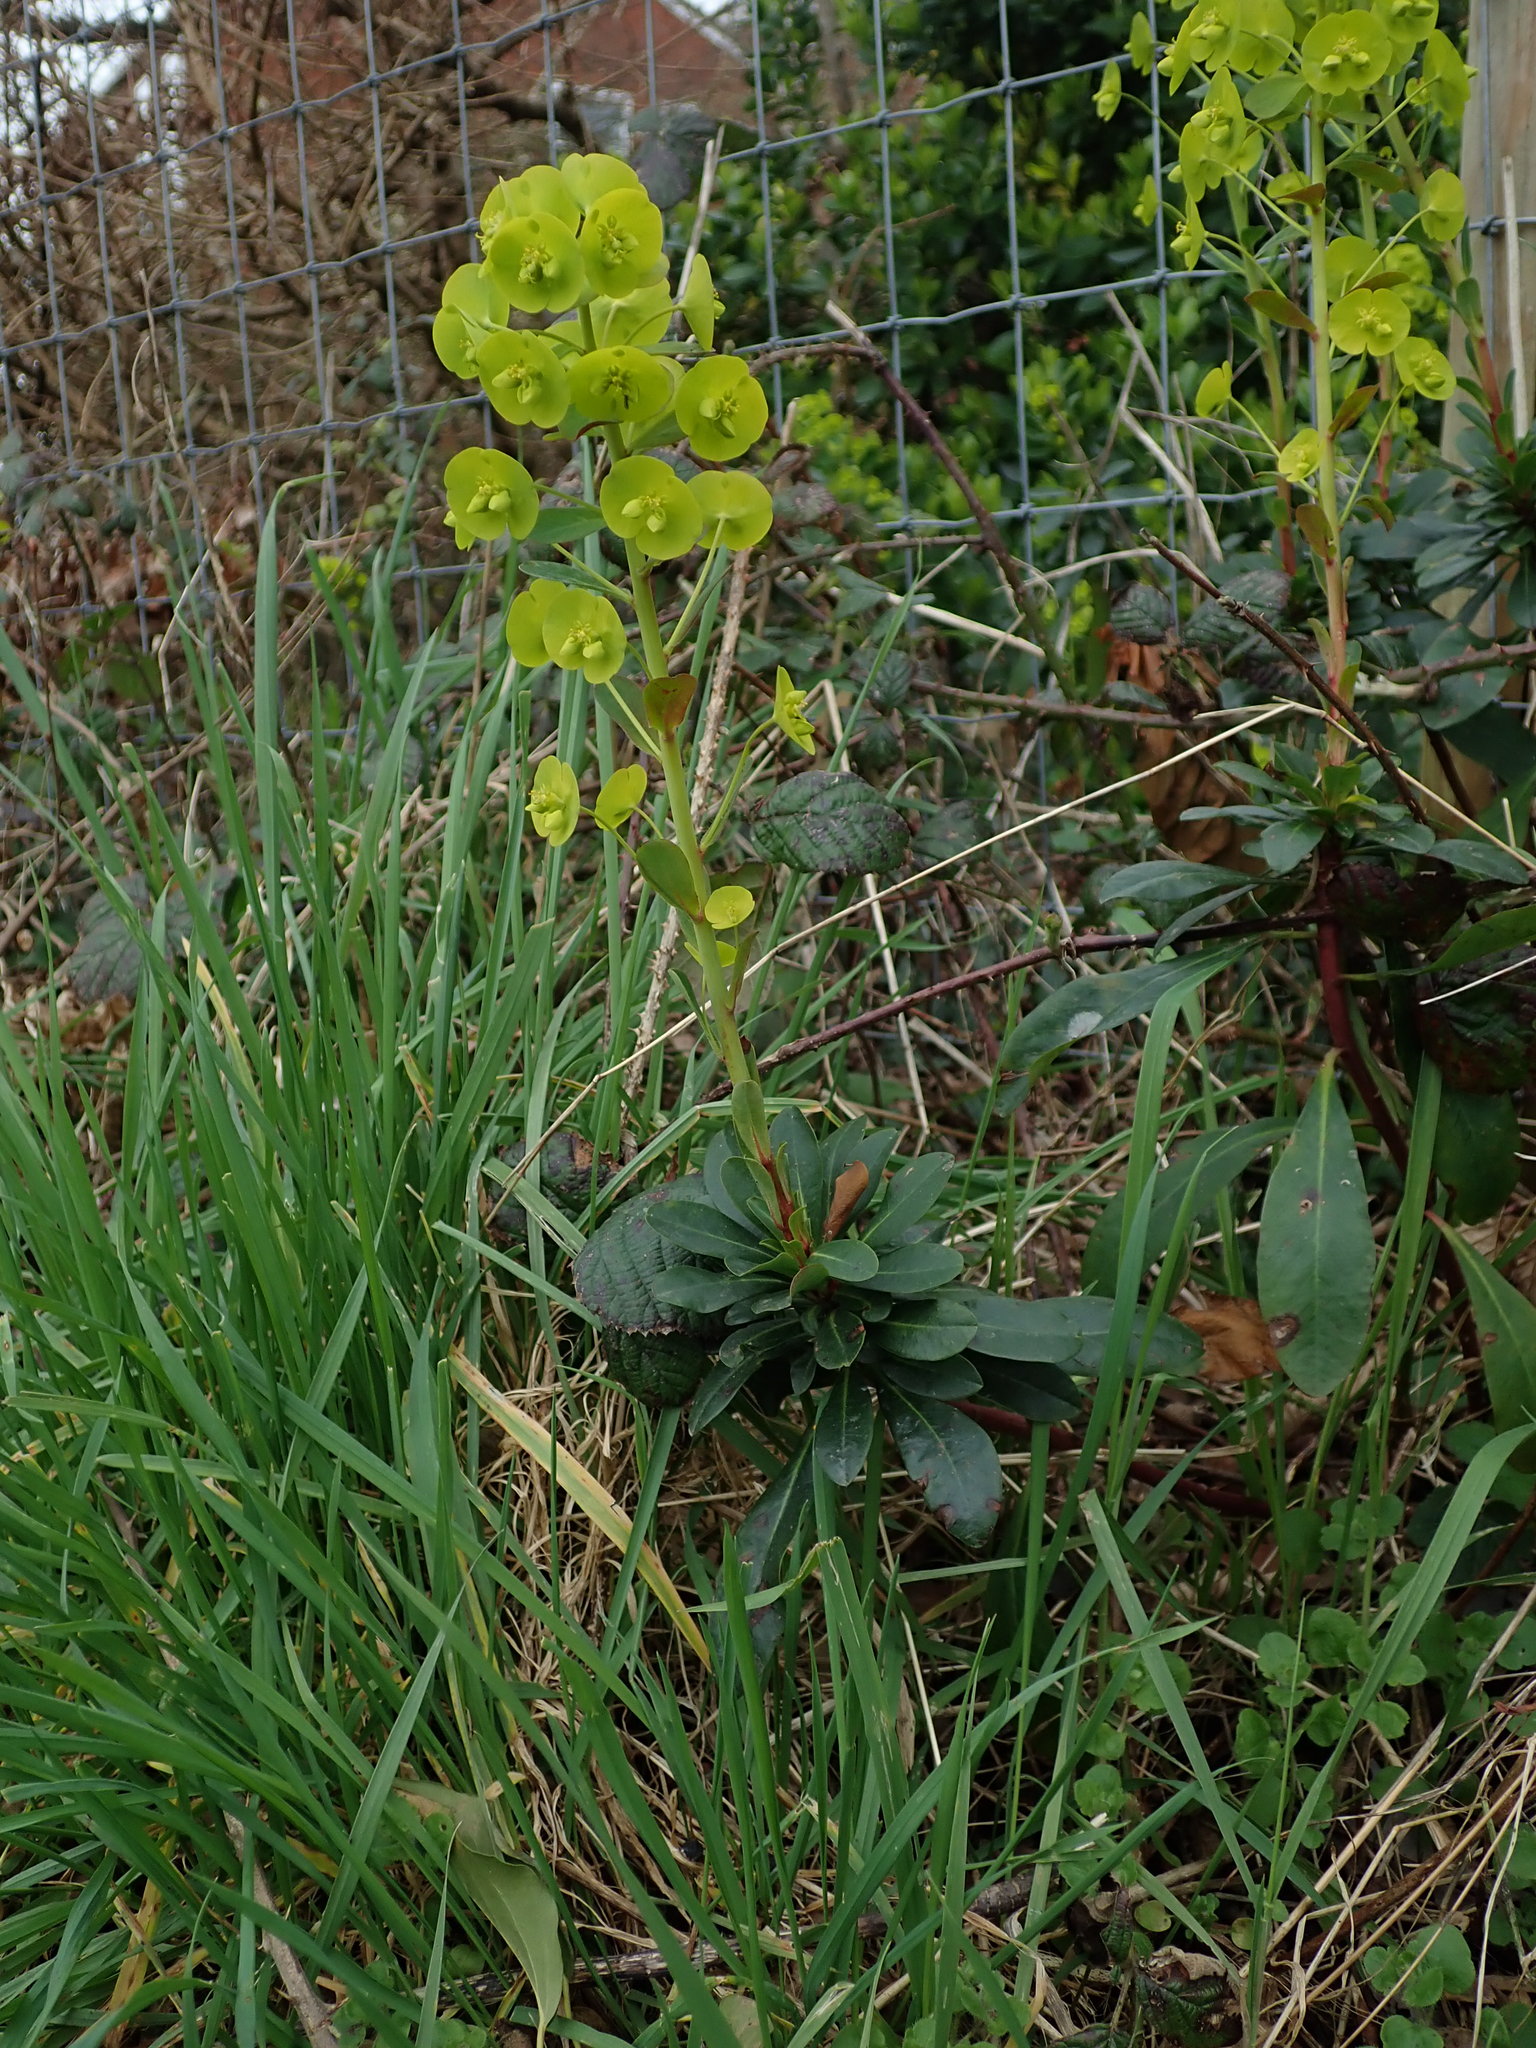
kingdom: Plantae
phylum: Tracheophyta
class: Magnoliopsida
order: Malpighiales
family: Euphorbiaceae
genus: Euphorbia
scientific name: Euphorbia amygdaloides
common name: Wood spurge
